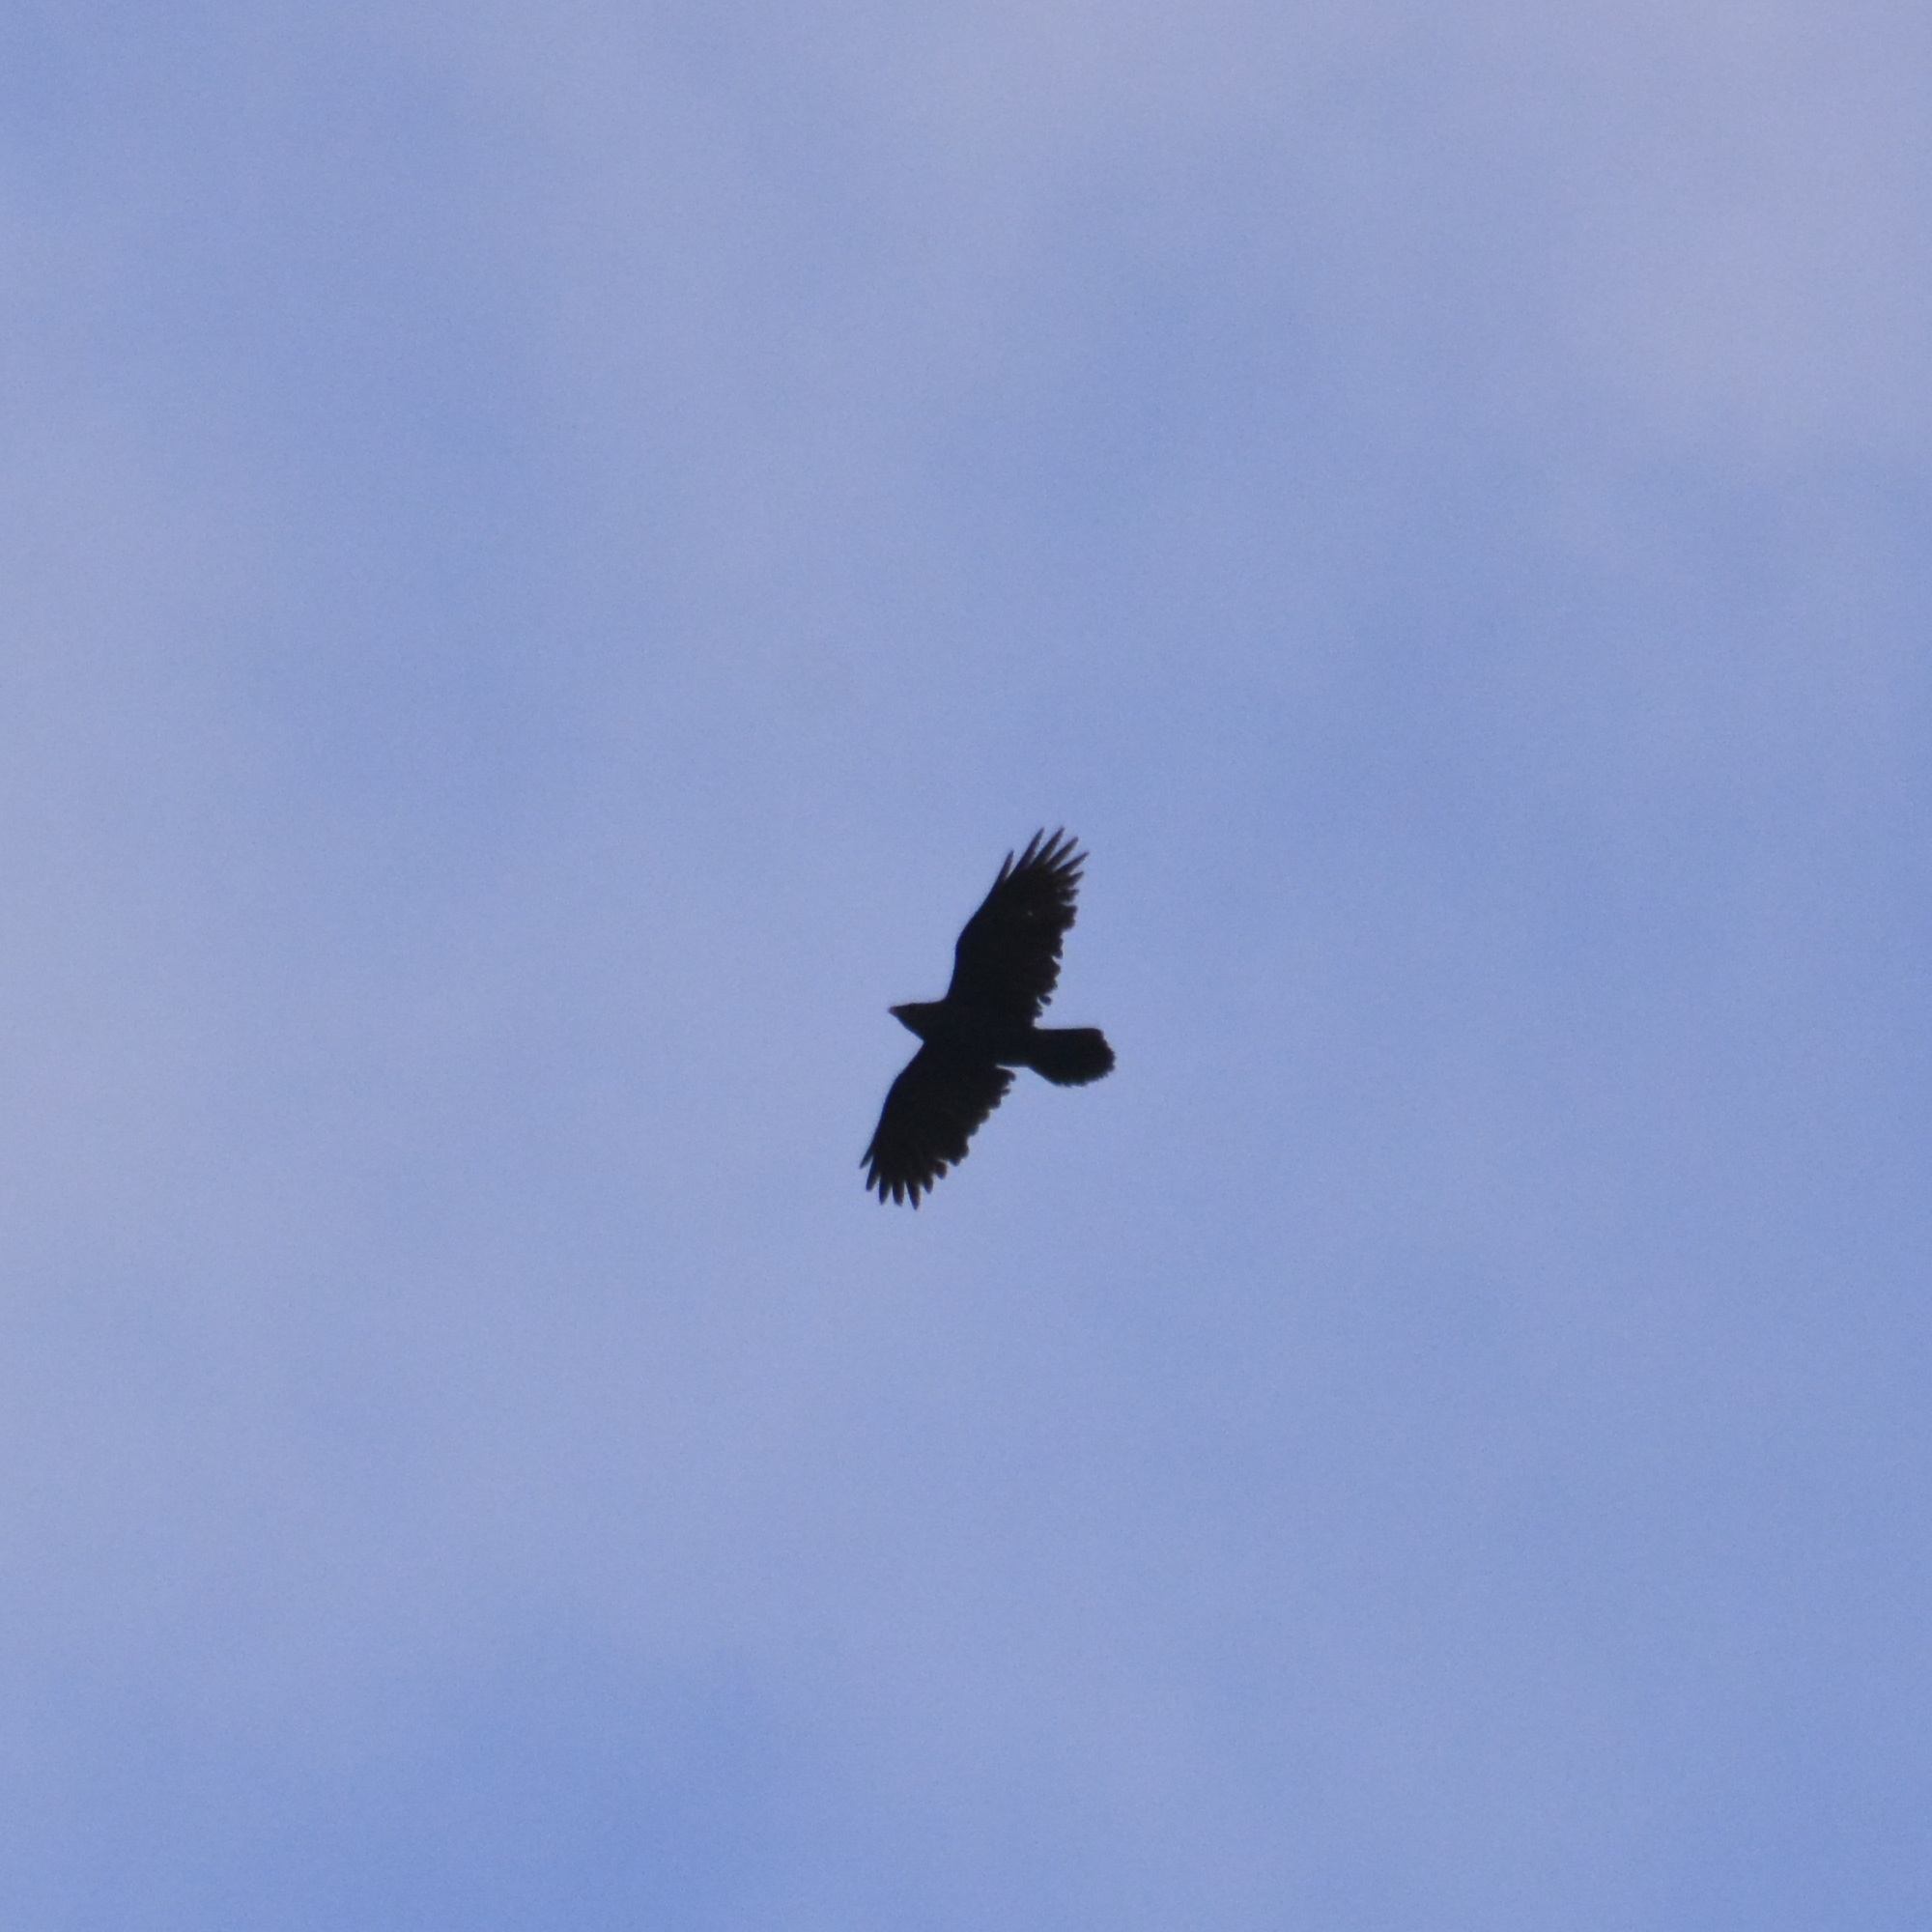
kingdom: Animalia
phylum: Chordata
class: Aves
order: Passeriformes
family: Corvidae
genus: Corvus
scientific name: Corvus corax
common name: Common raven
